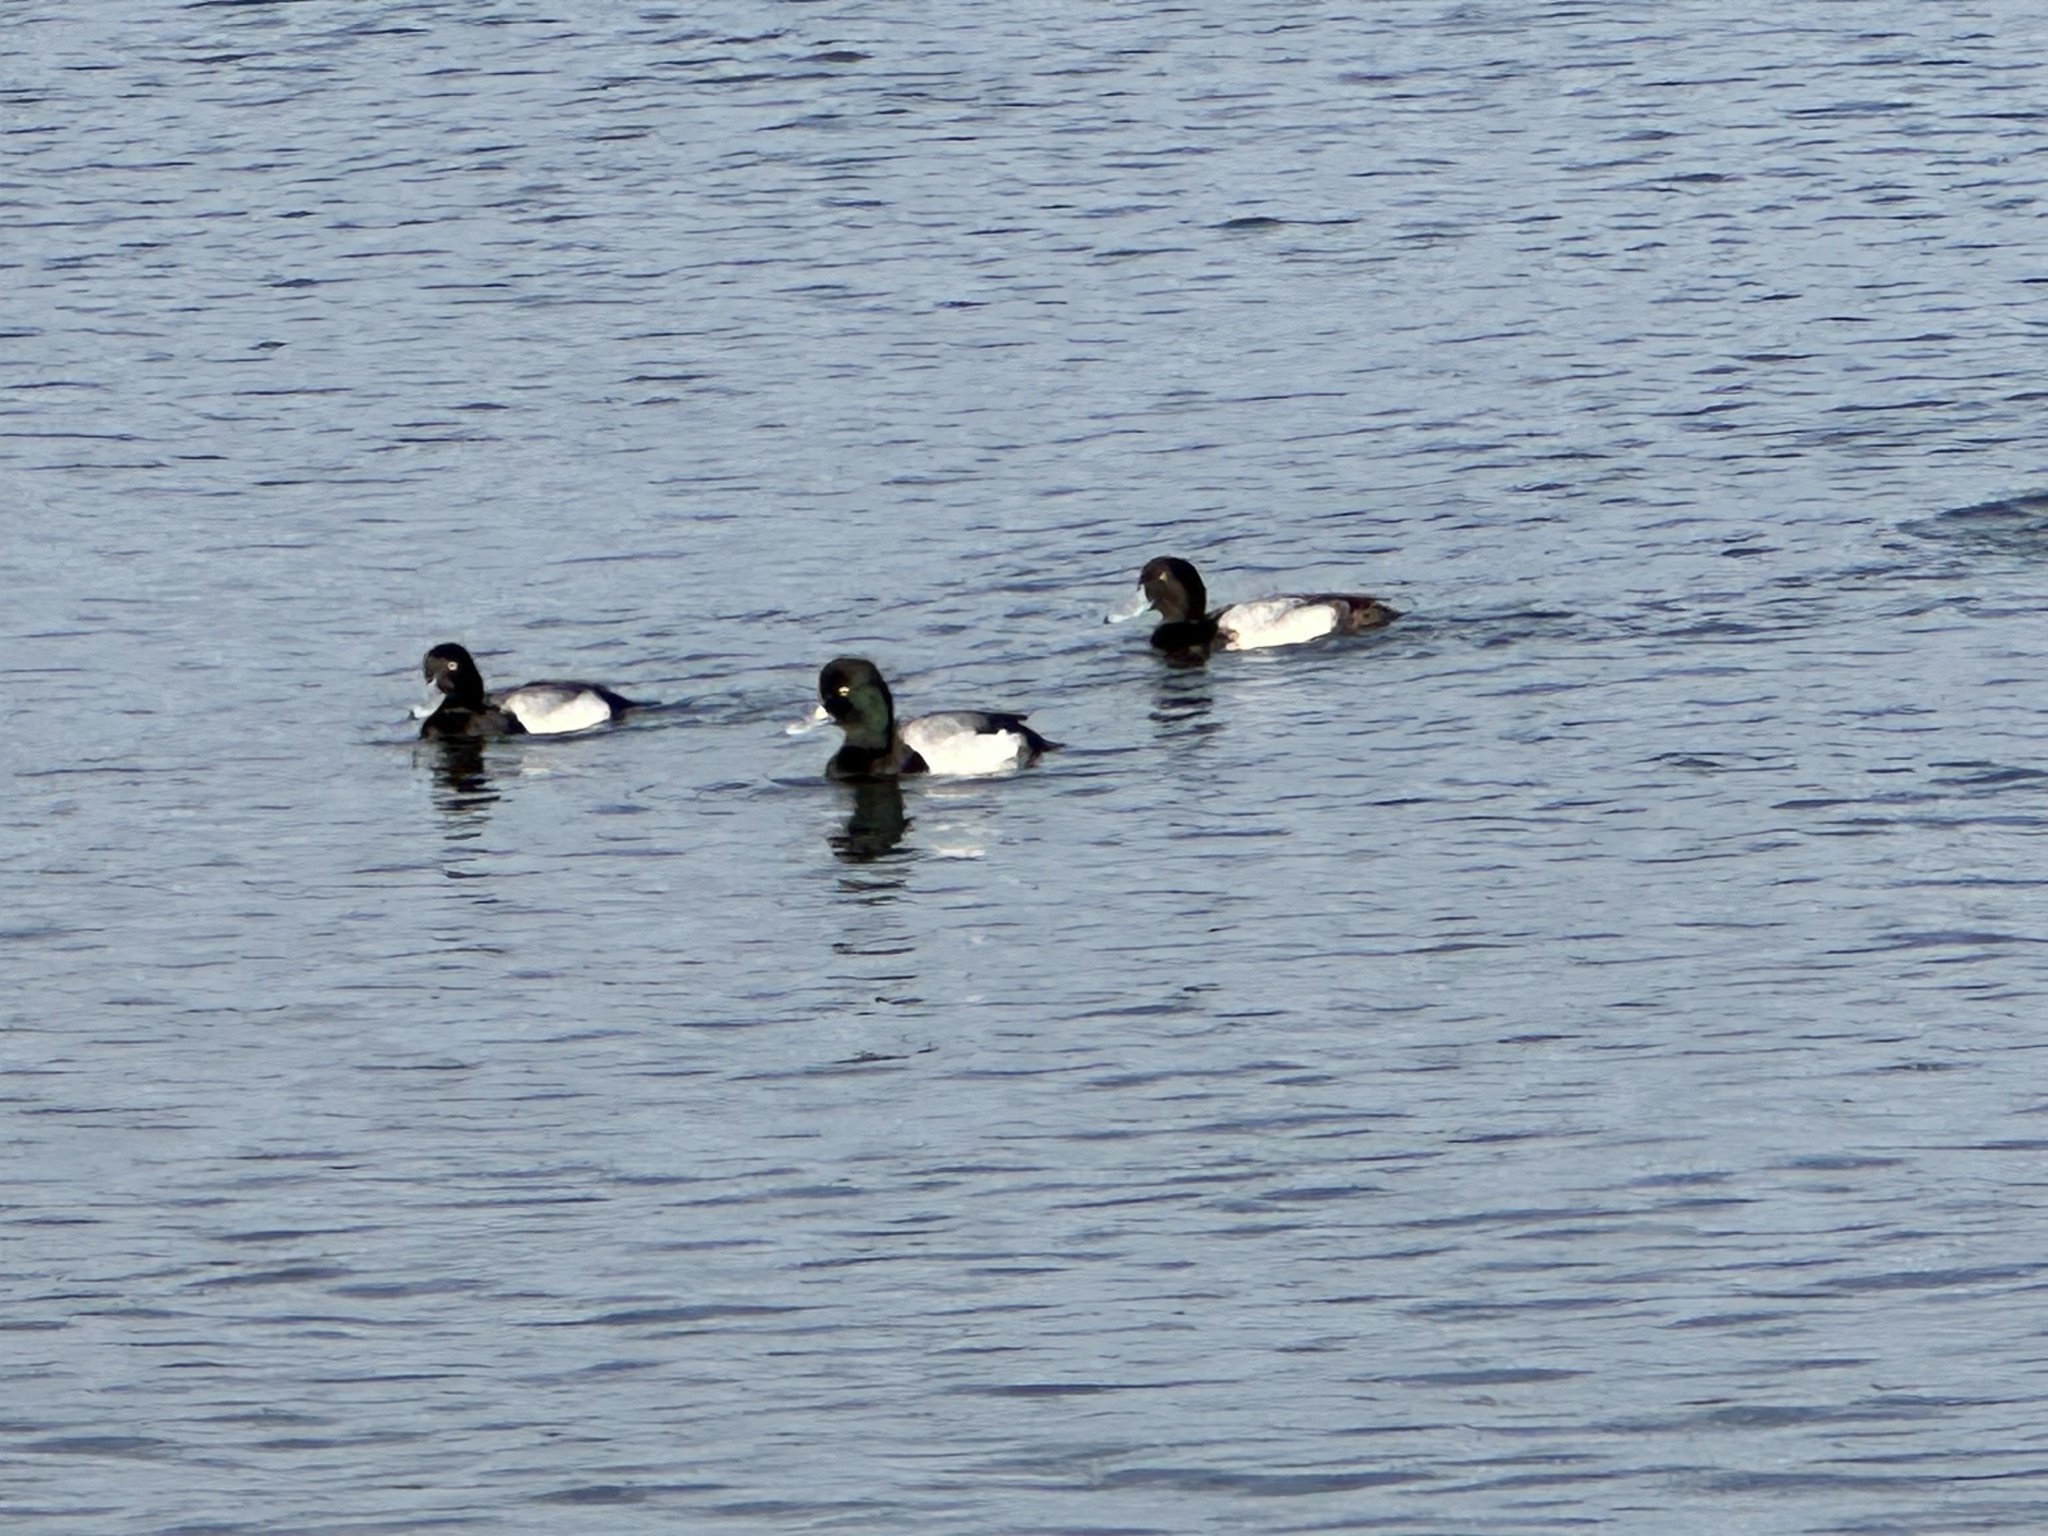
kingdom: Animalia
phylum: Chordata
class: Aves
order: Anseriformes
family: Anatidae
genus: Aythya
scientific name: Aythya affinis
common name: Lesser scaup
